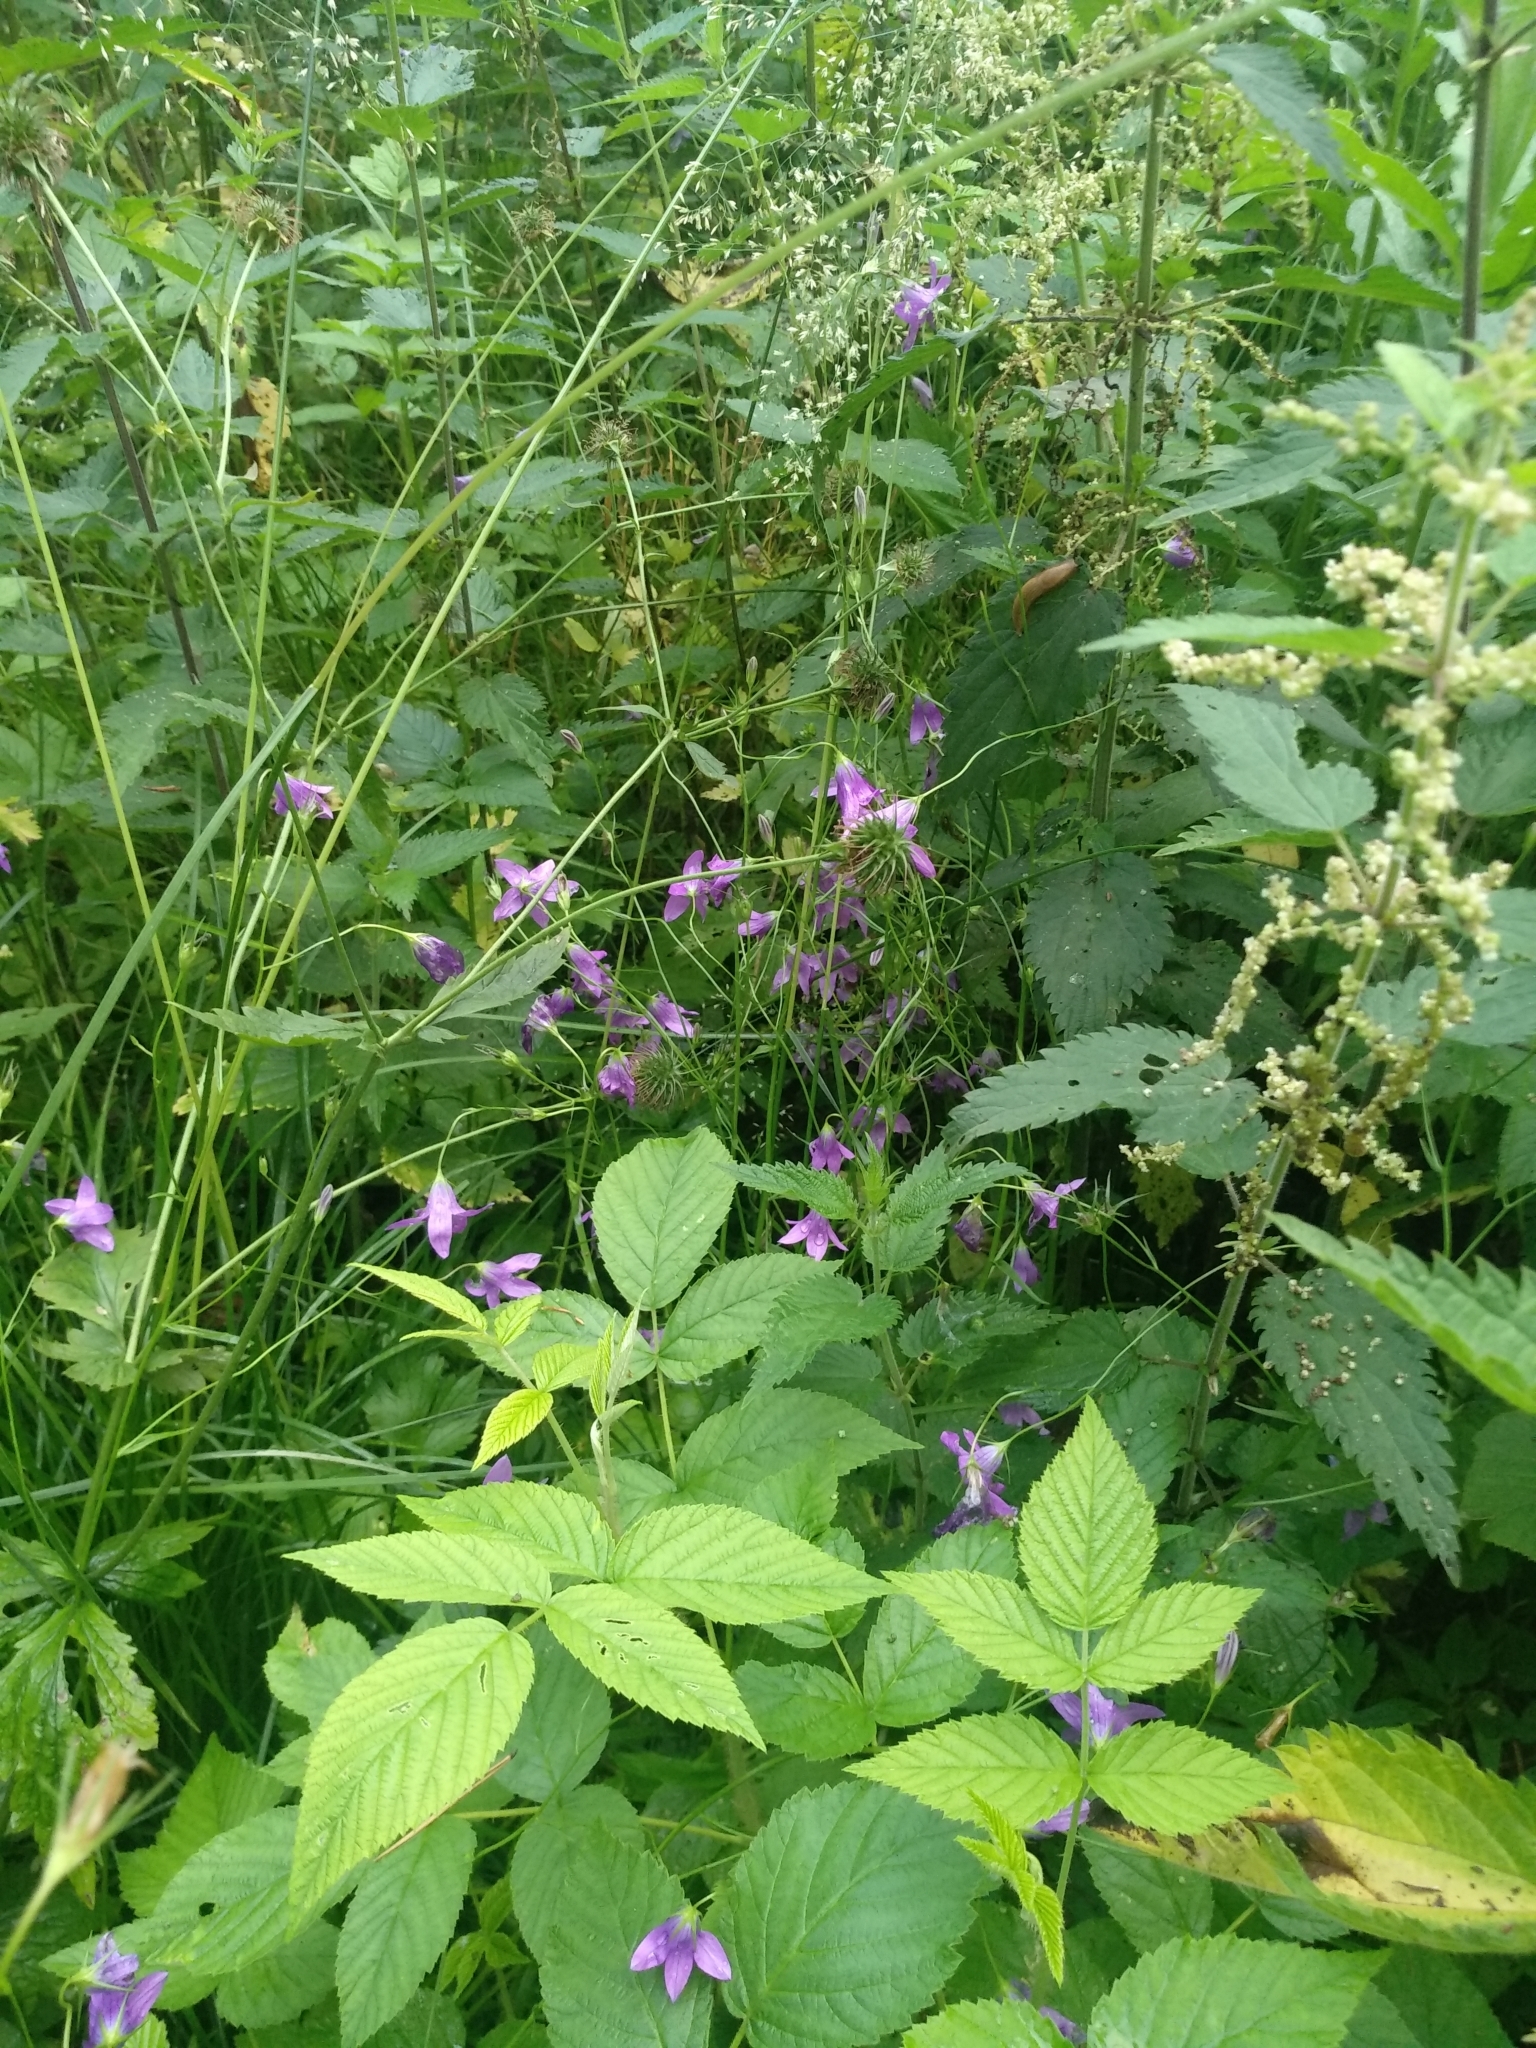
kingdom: Plantae
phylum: Tracheophyta
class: Magnoliopsida
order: Asterales
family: Campanulaceae
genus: Campanula
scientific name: Campanula patula
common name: Spreading bellflower
